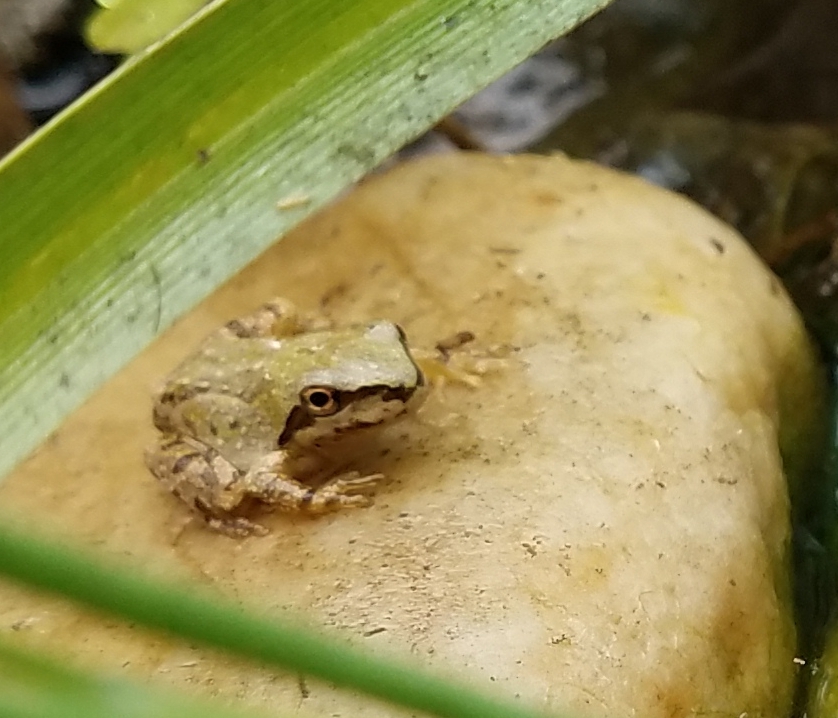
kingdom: Animalia
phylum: Chordata
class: Amphibia
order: Anura
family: Hylidae
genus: Pseudacris
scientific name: Pseudacris regilla
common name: Pacific chorus frog
